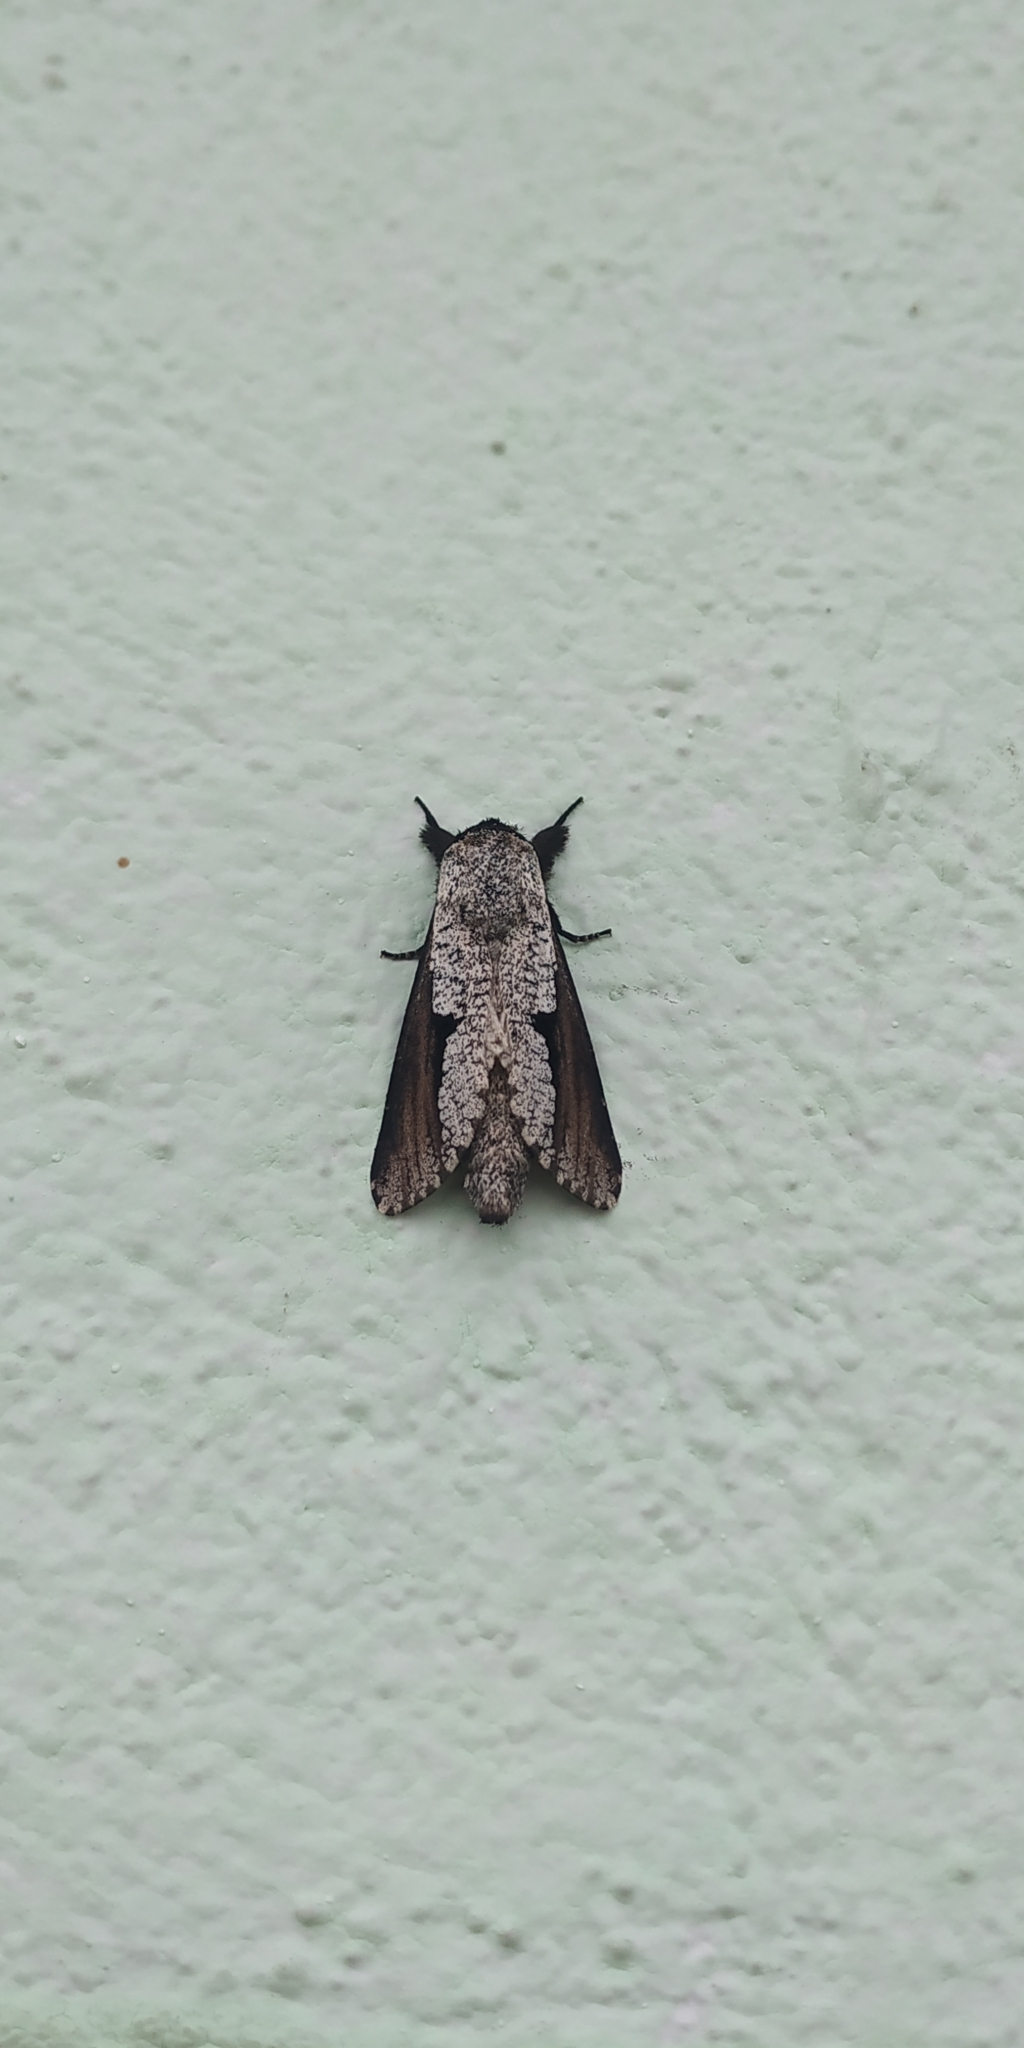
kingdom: Animalia
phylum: Arthropoda
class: Insecta
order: Lepidoptera
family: Cossidae
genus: Brypoctia
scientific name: Brypoctia
